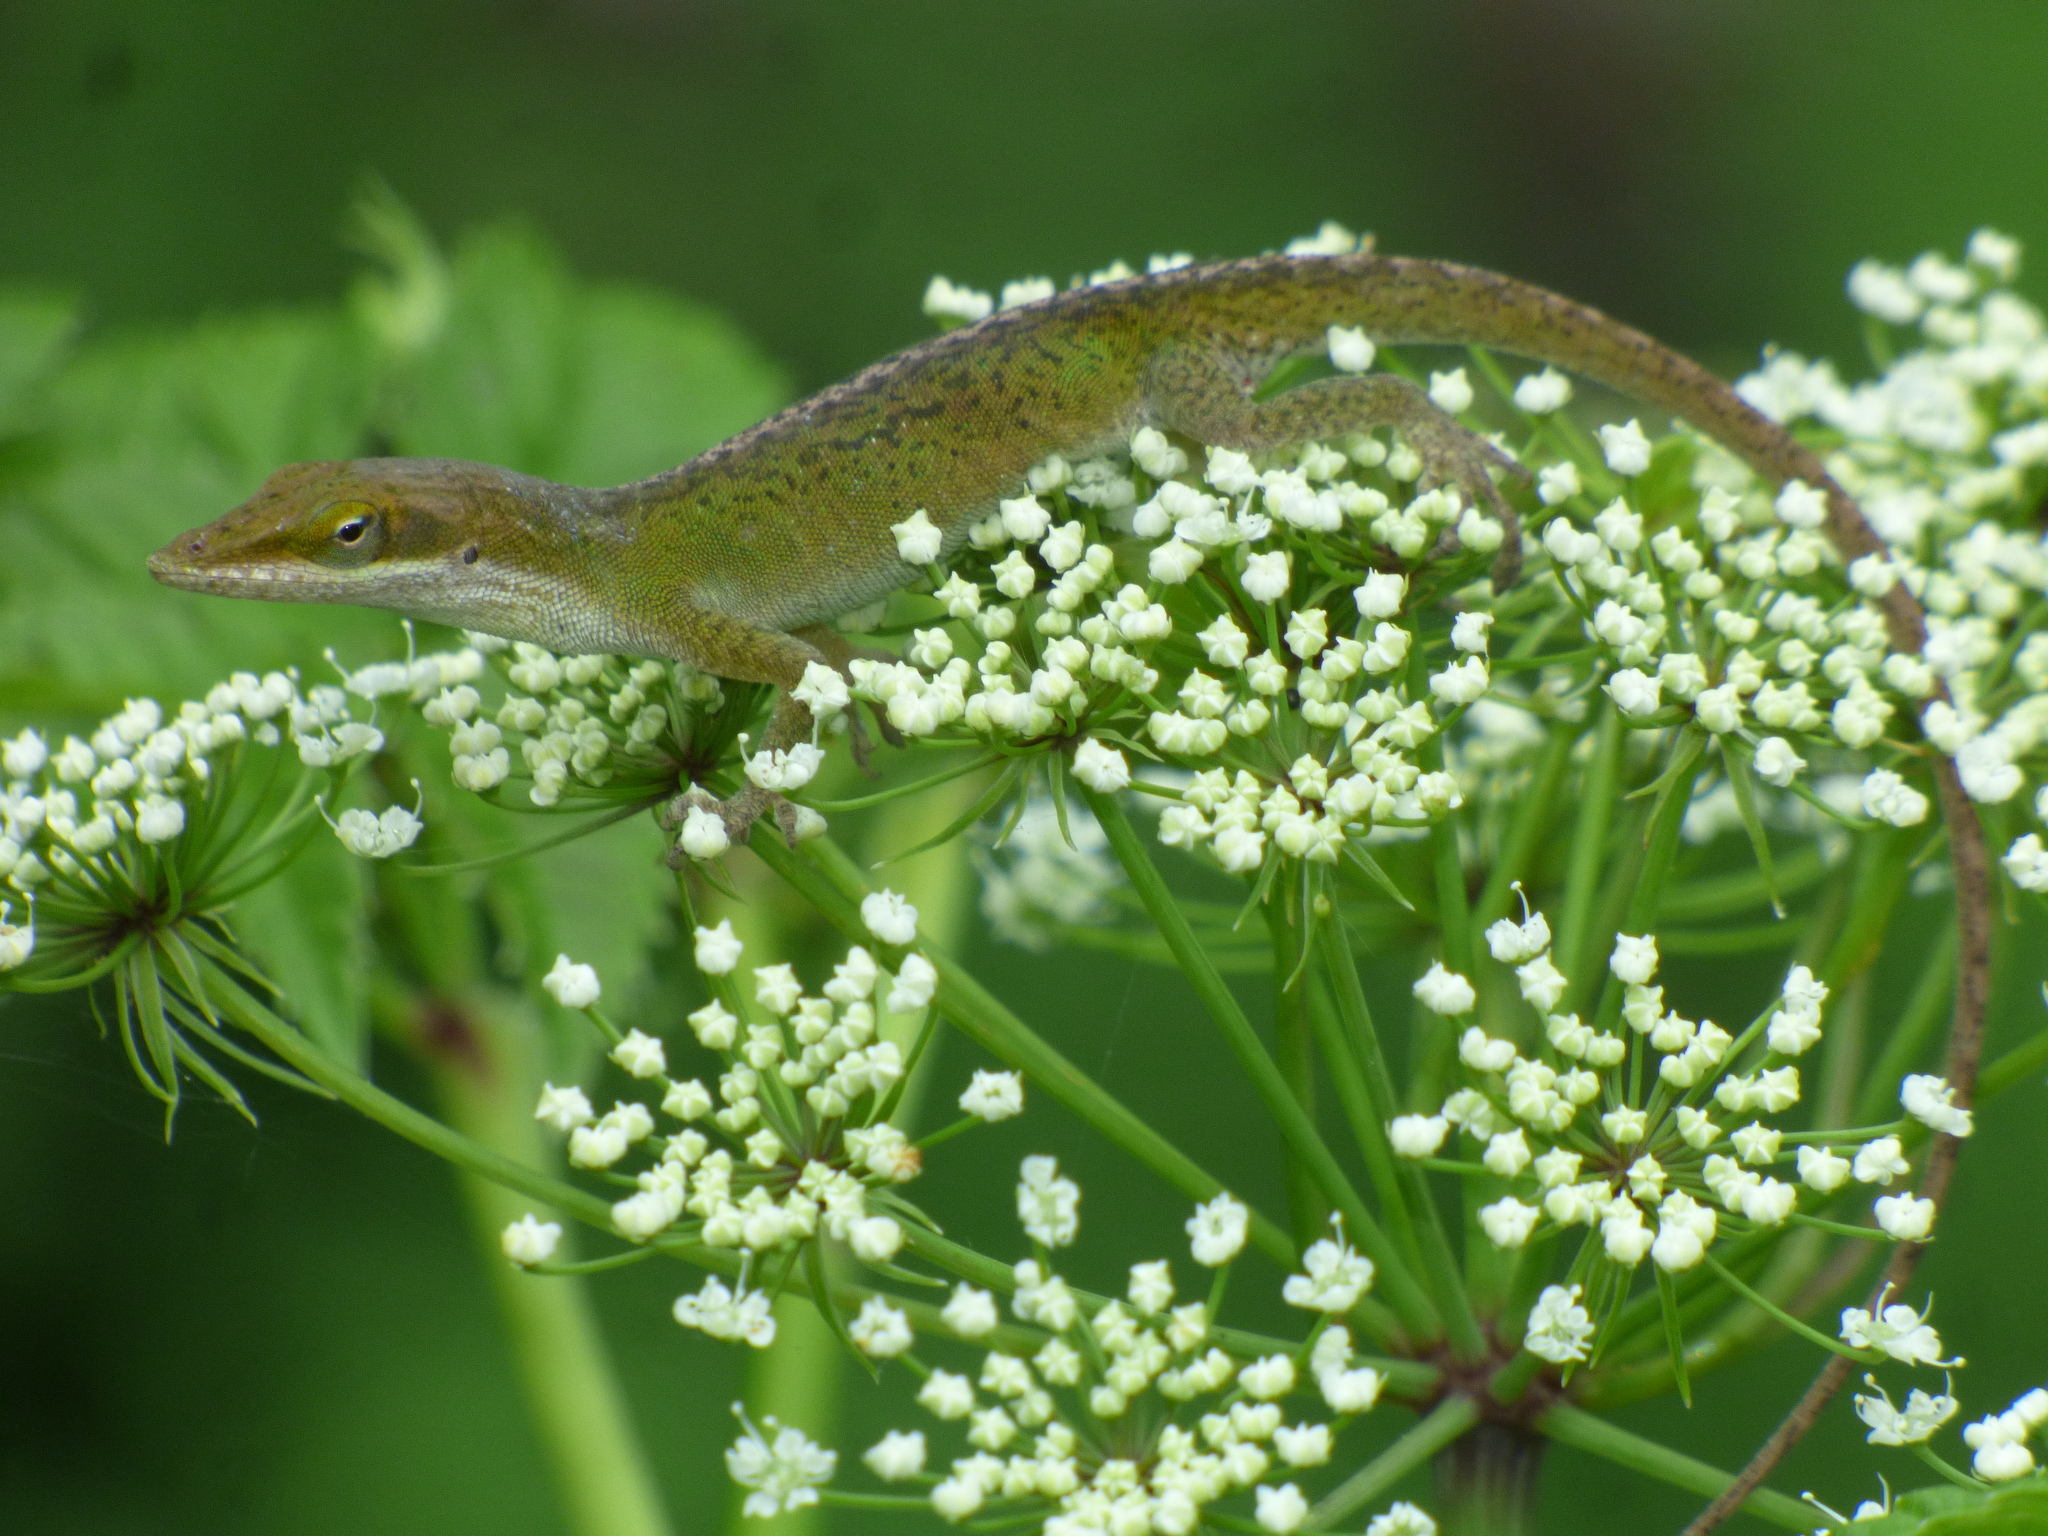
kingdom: Animalia
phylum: Chordata
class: Squamata
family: Dactyloidae
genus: Anolis
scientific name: Anolis carolinensis
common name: Green anole
